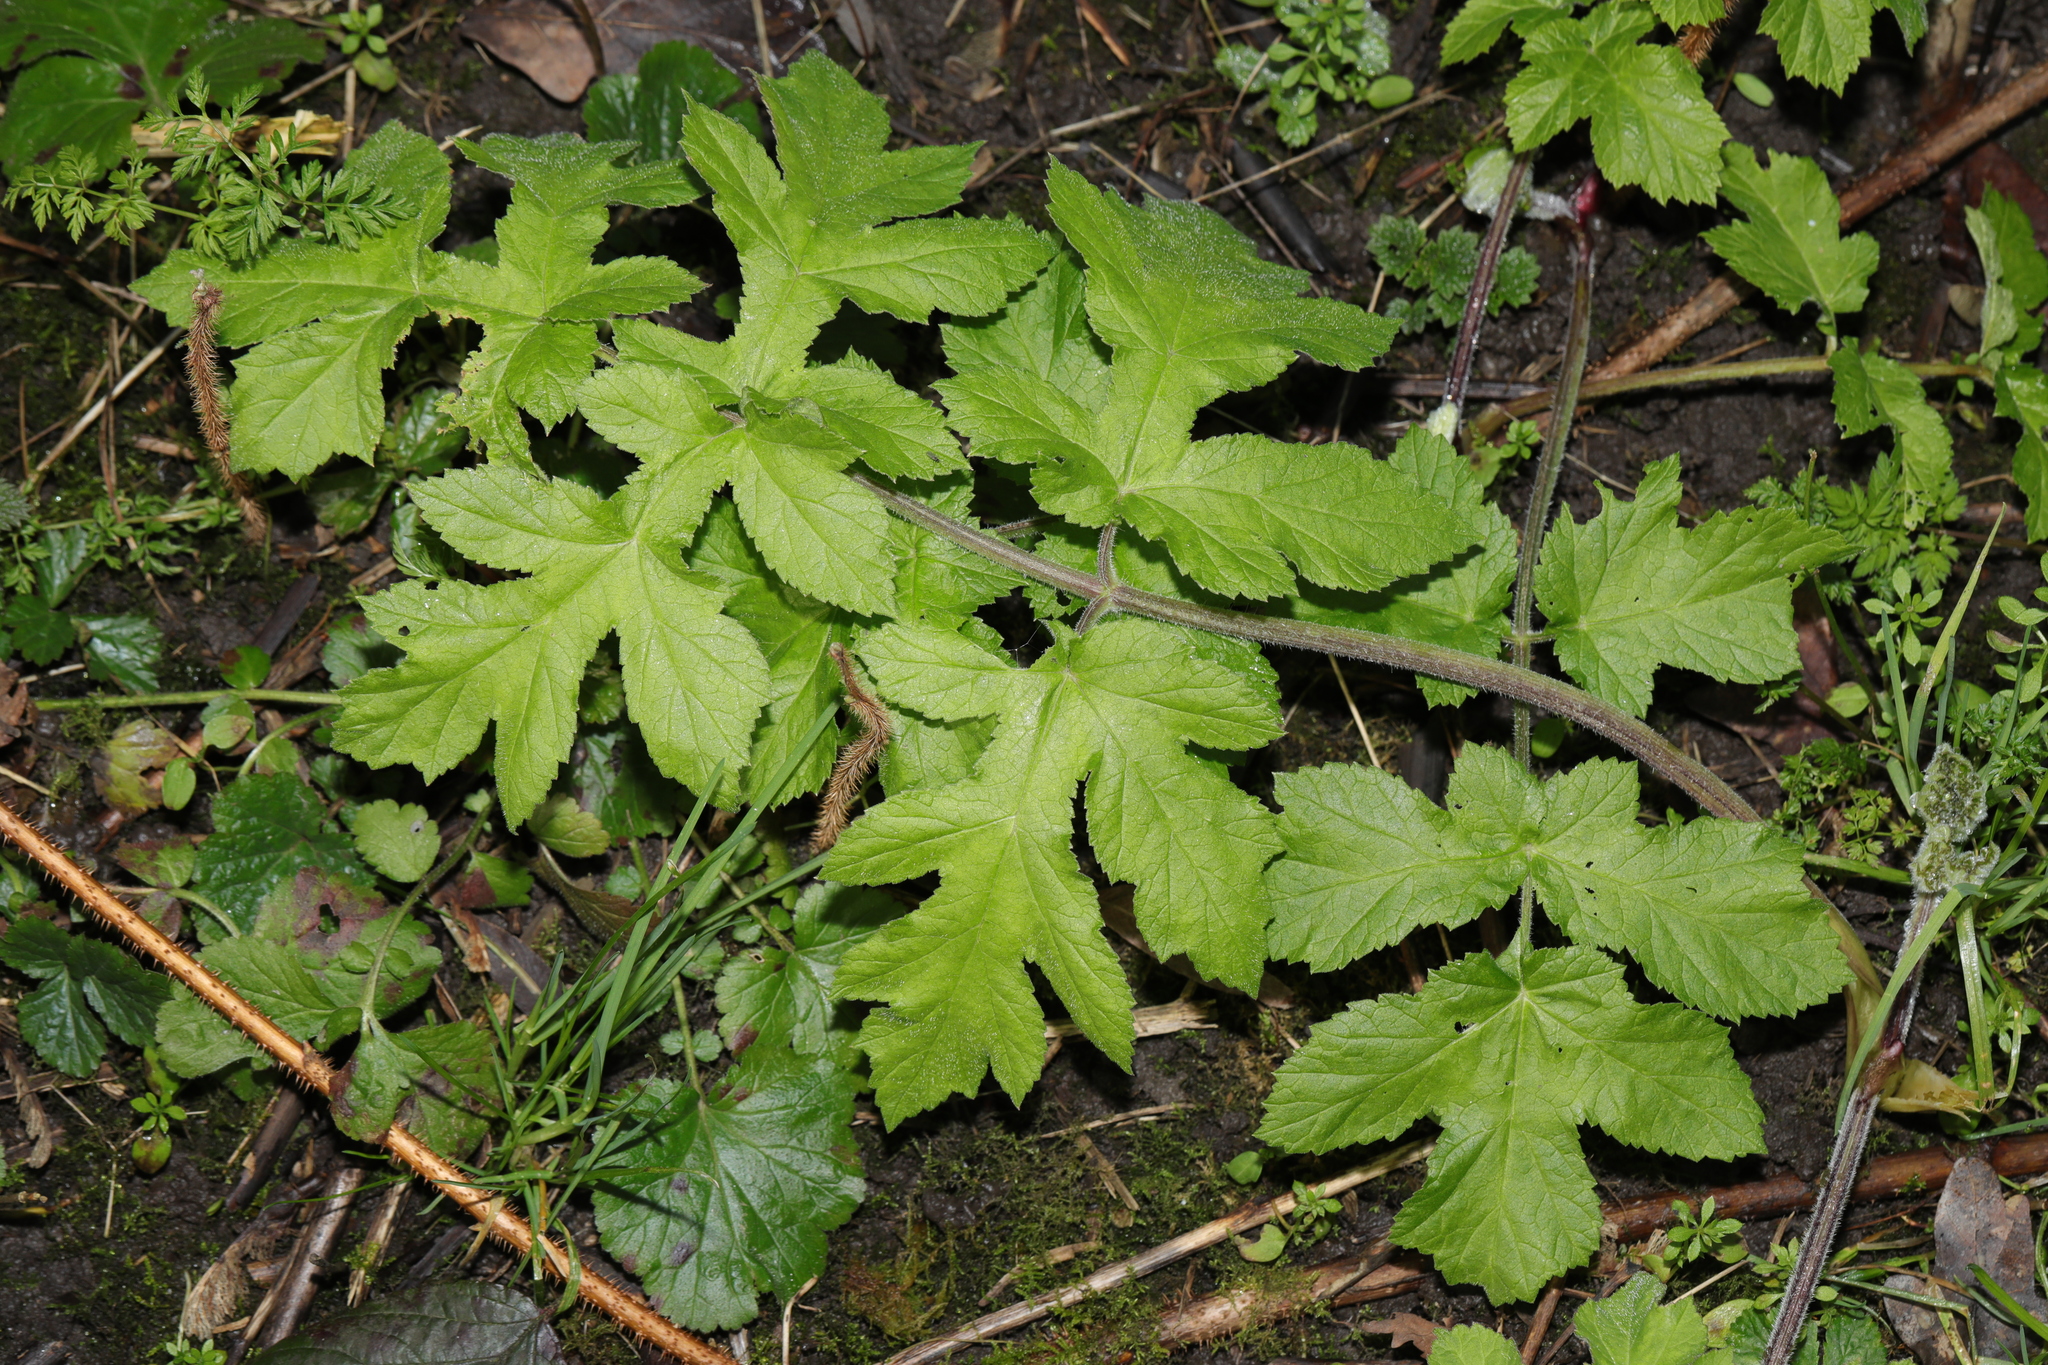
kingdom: Plantae
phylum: Tracheophyta
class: Magnoliopsida
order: Apiales
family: Apiaceae
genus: Heracleum
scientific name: Heracleum sphondylium
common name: Hogweed
